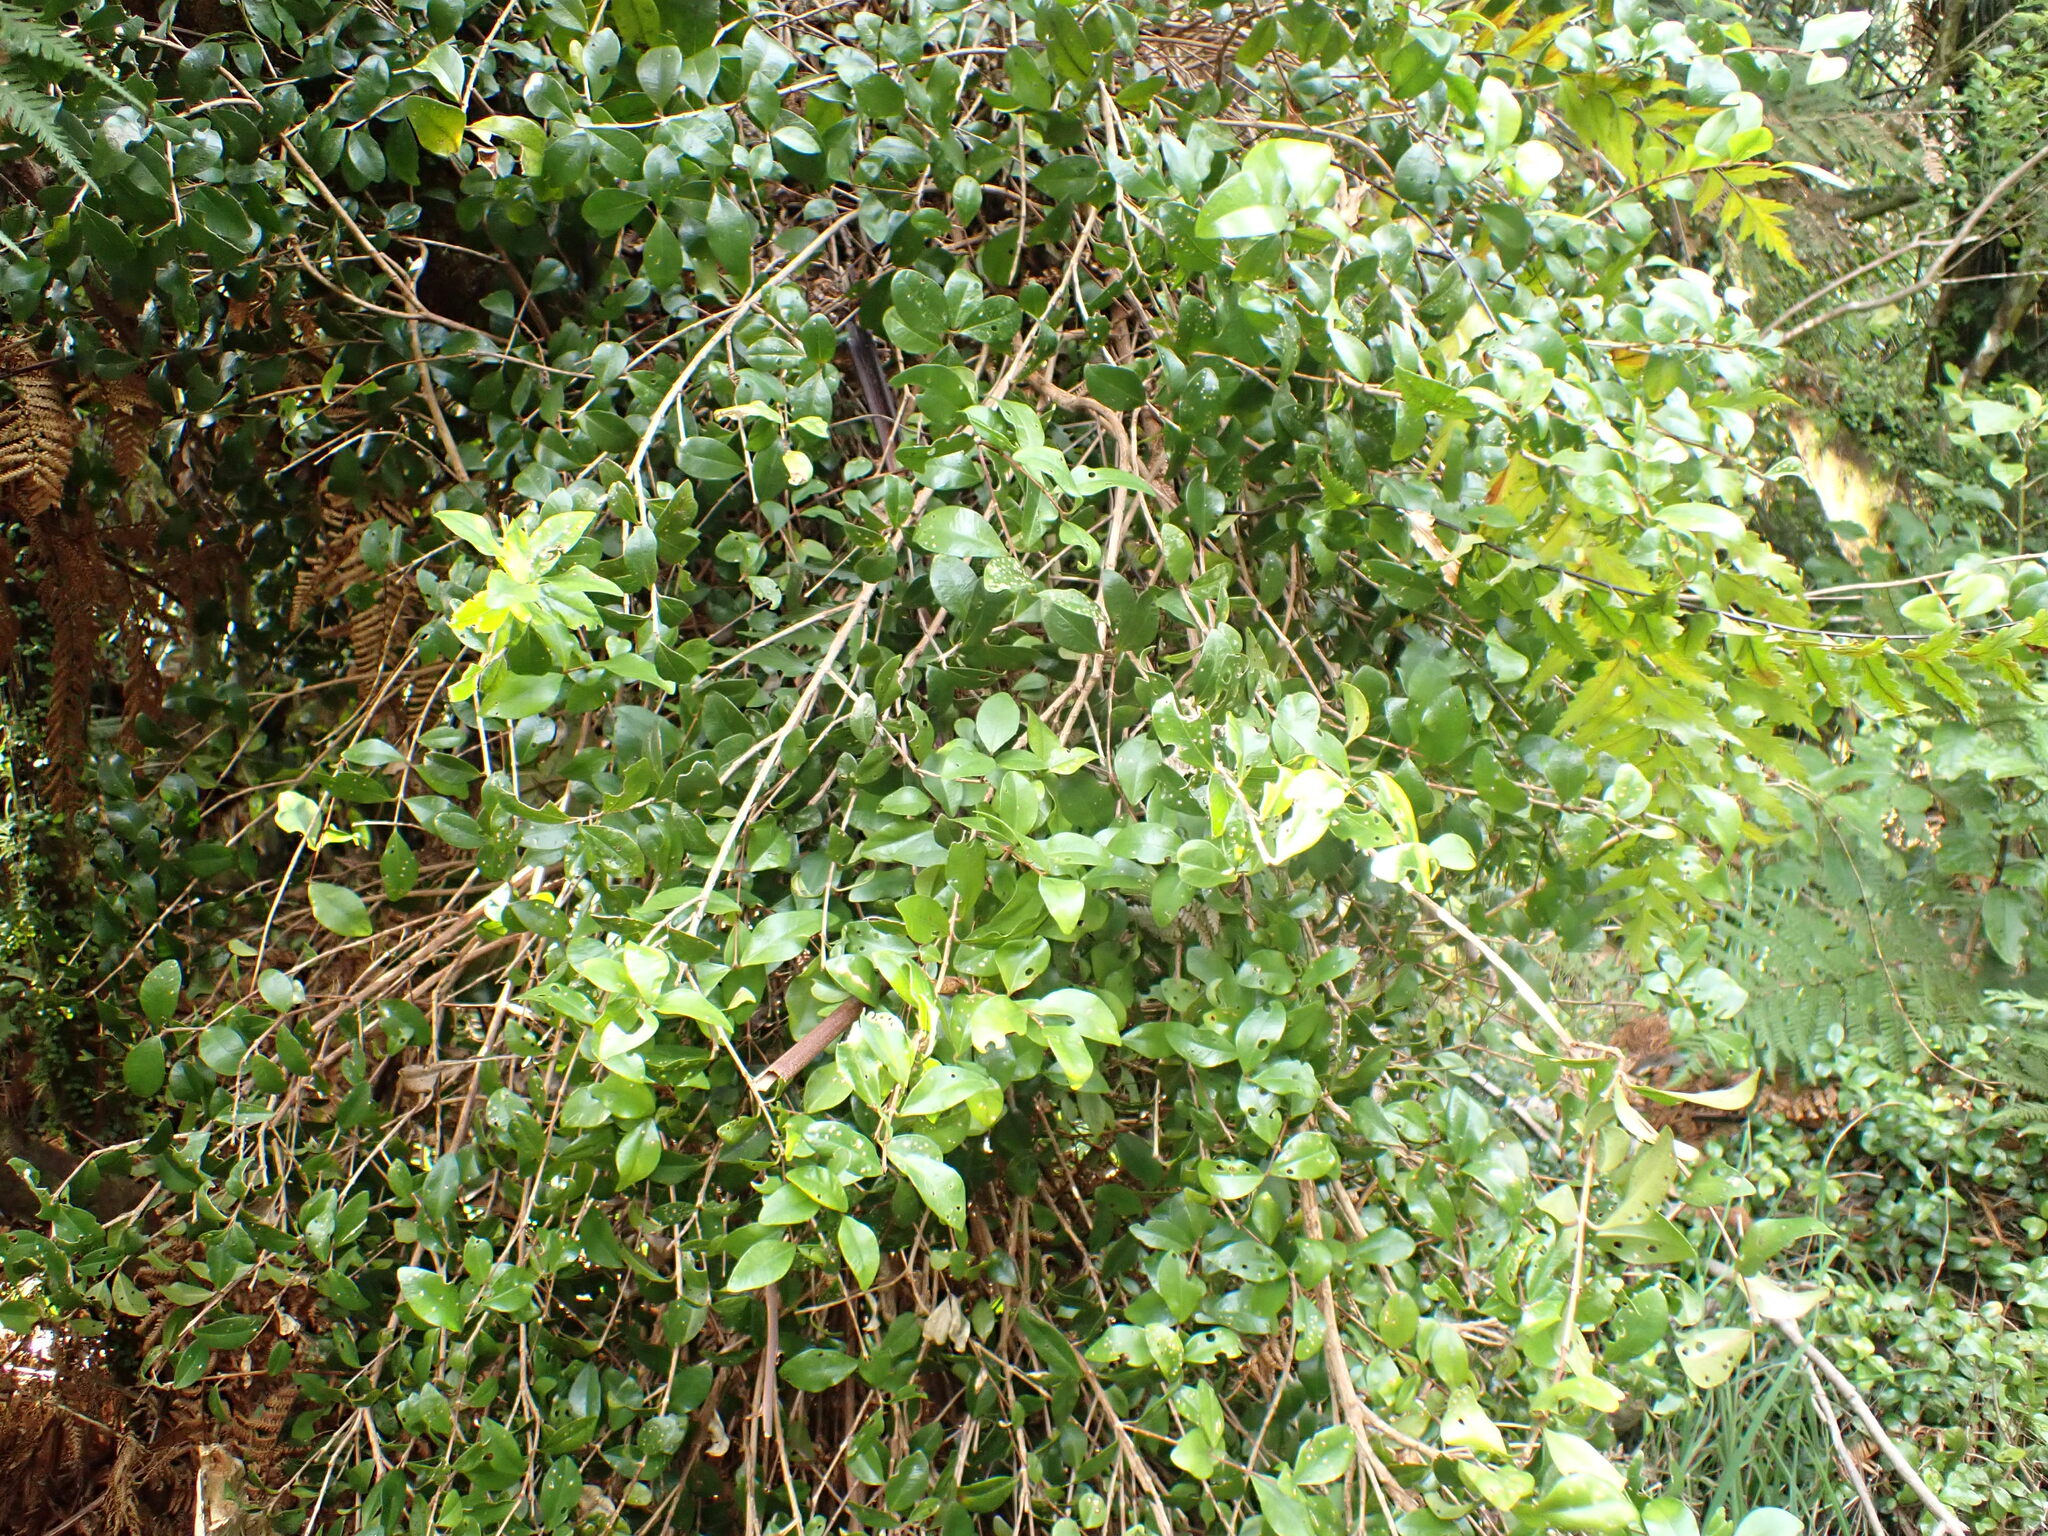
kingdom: Plantae
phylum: Tracheophyta
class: Magnoliopsida
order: Myrtales
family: Myrtaceae
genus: Metrosideros
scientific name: Metrosideros fulgens
